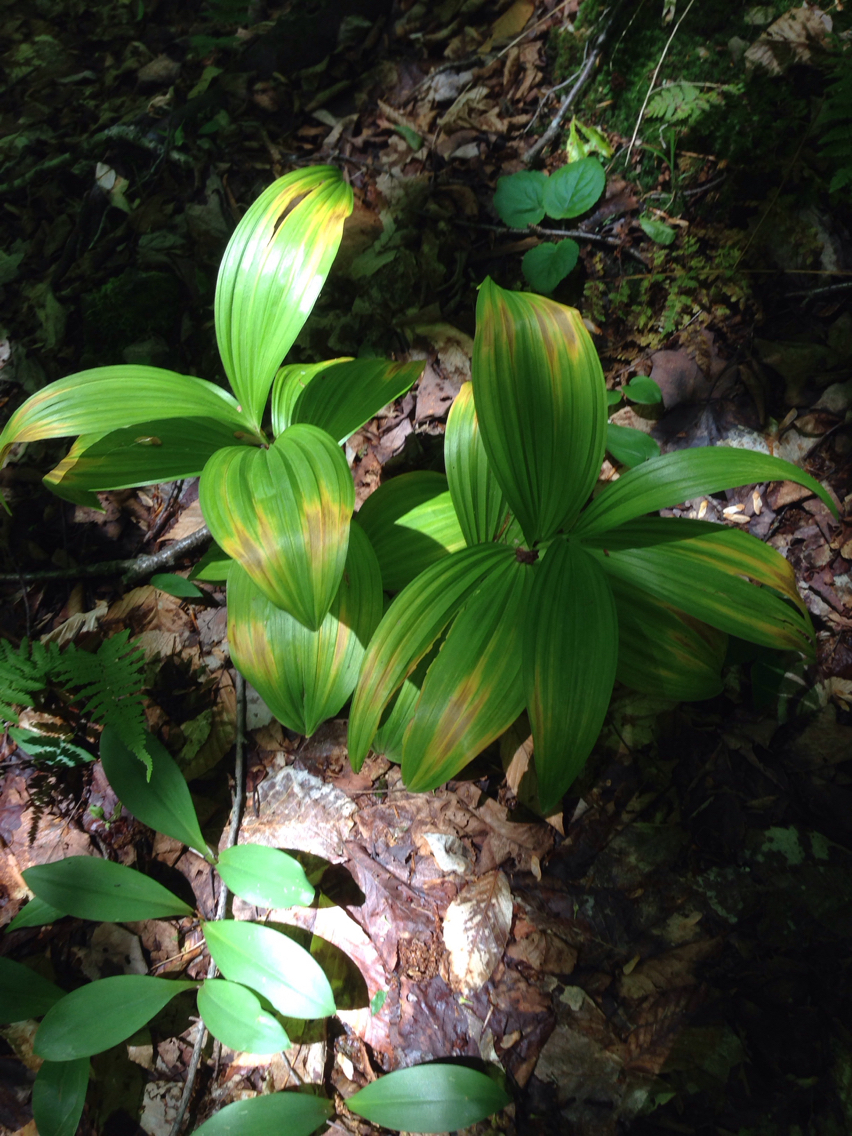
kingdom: Plantae
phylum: Tracheophyta
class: Liliopsida
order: Liliales
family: Liliaceae
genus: Clintonia
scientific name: Clintonia borealis
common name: Yellow clintonia
